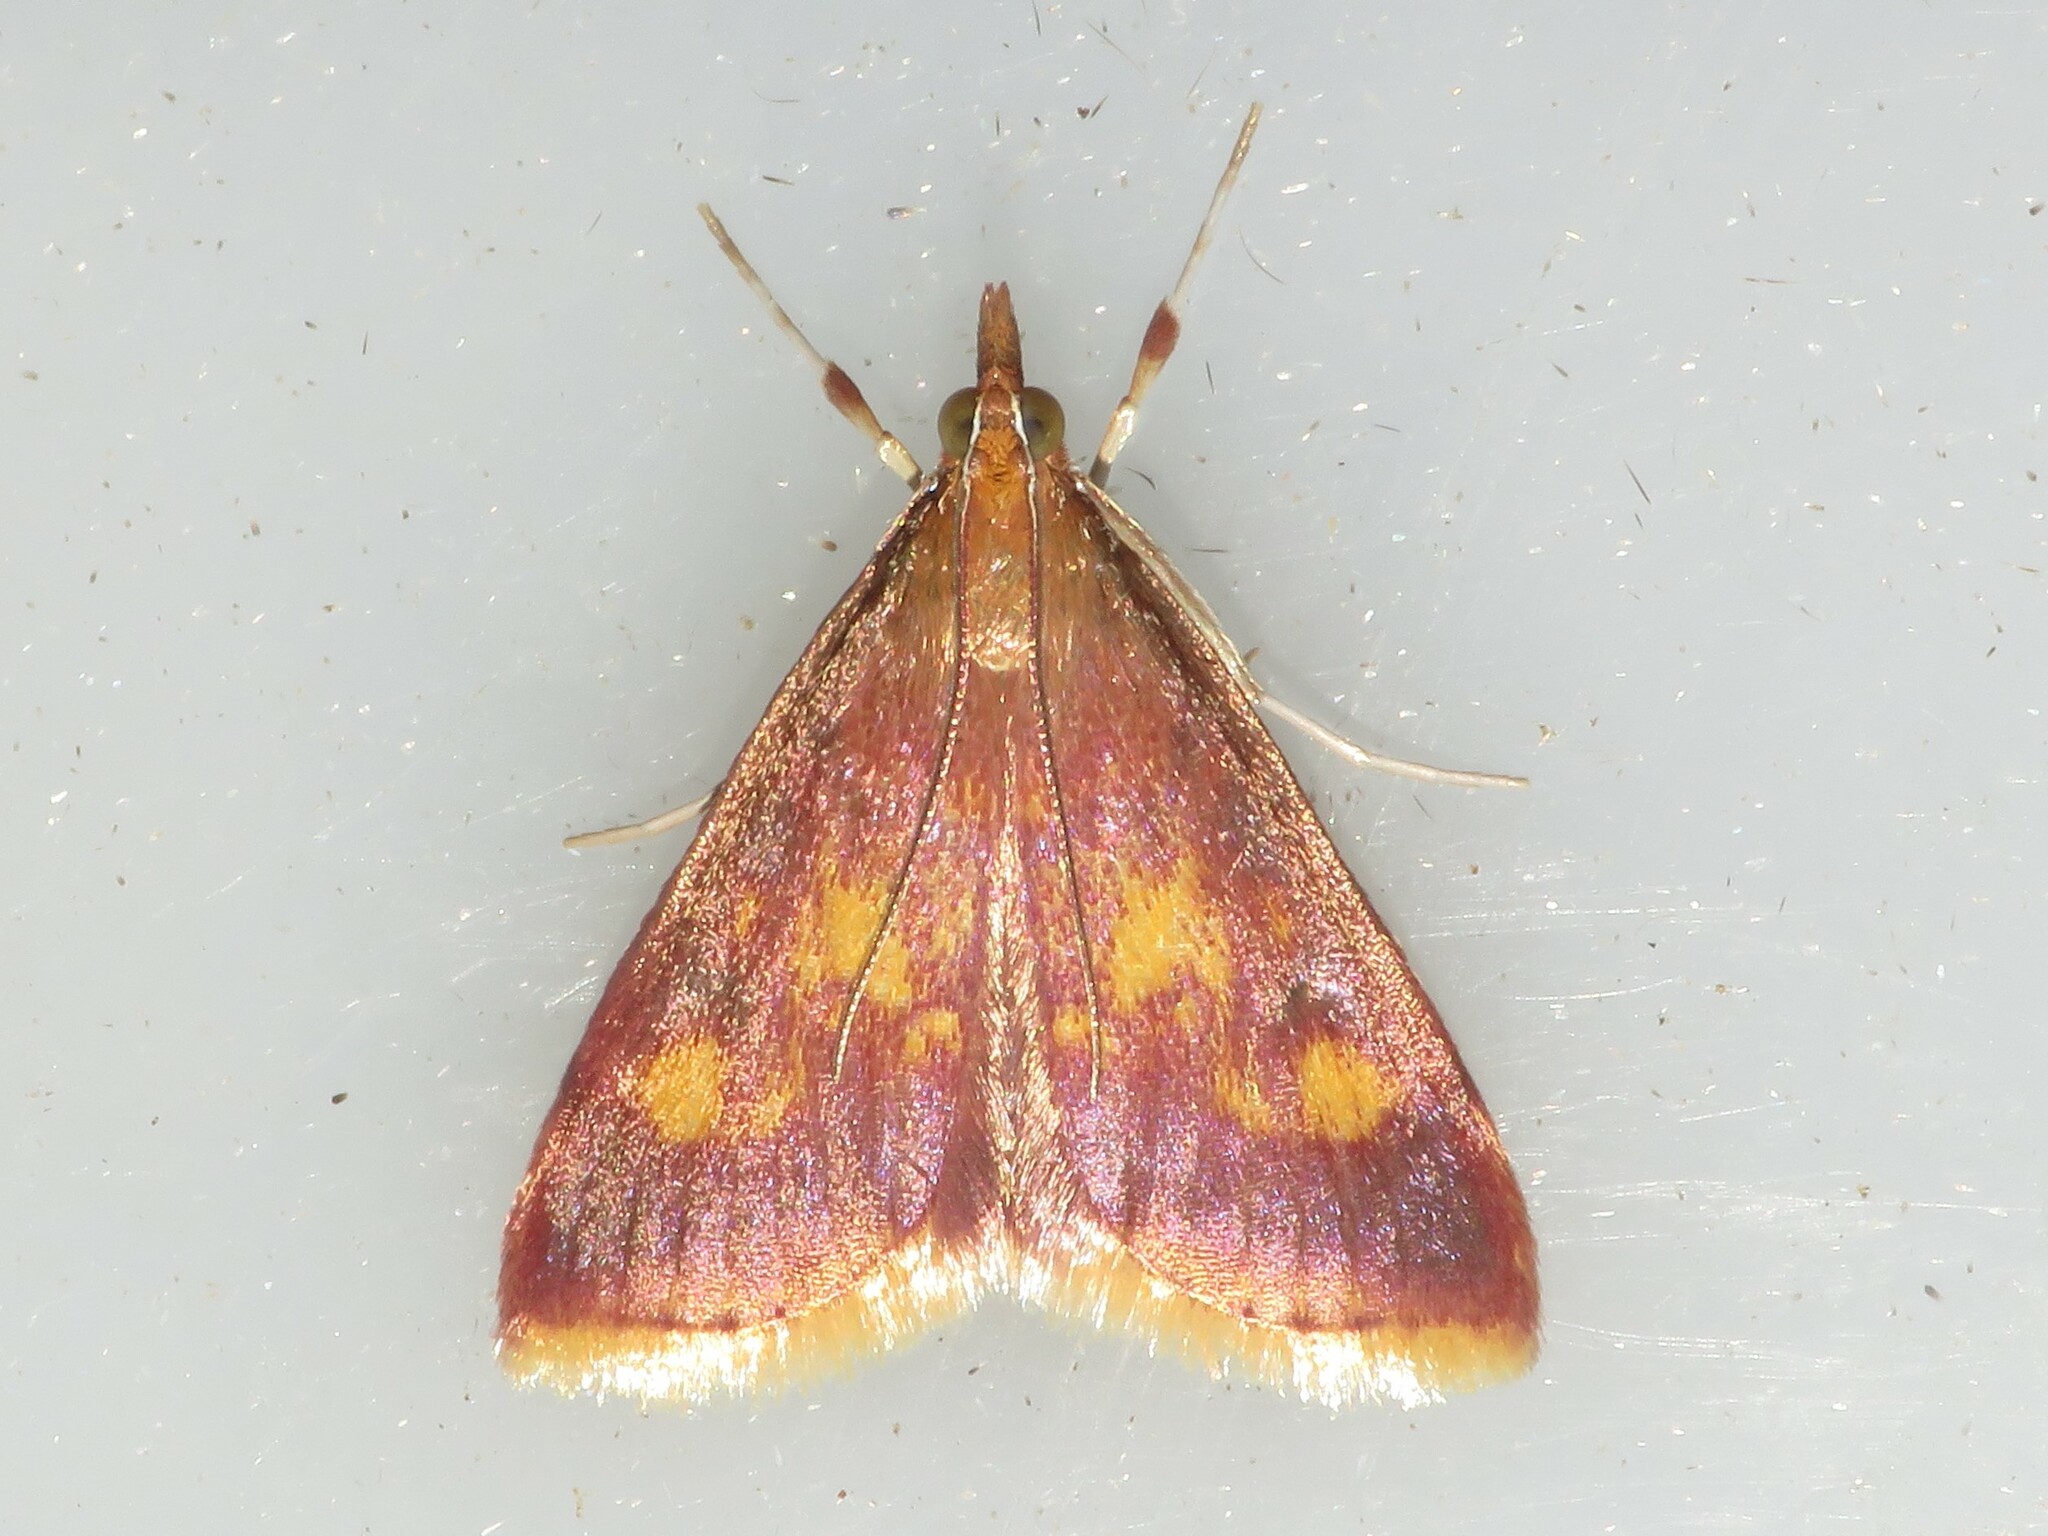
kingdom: Animalia
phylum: Arthropoda
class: Insecta
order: Lepidoptera
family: Crambidae
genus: Pyrausta
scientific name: Pyrausta acrionalis
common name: Mint-loving pyrausta moth
